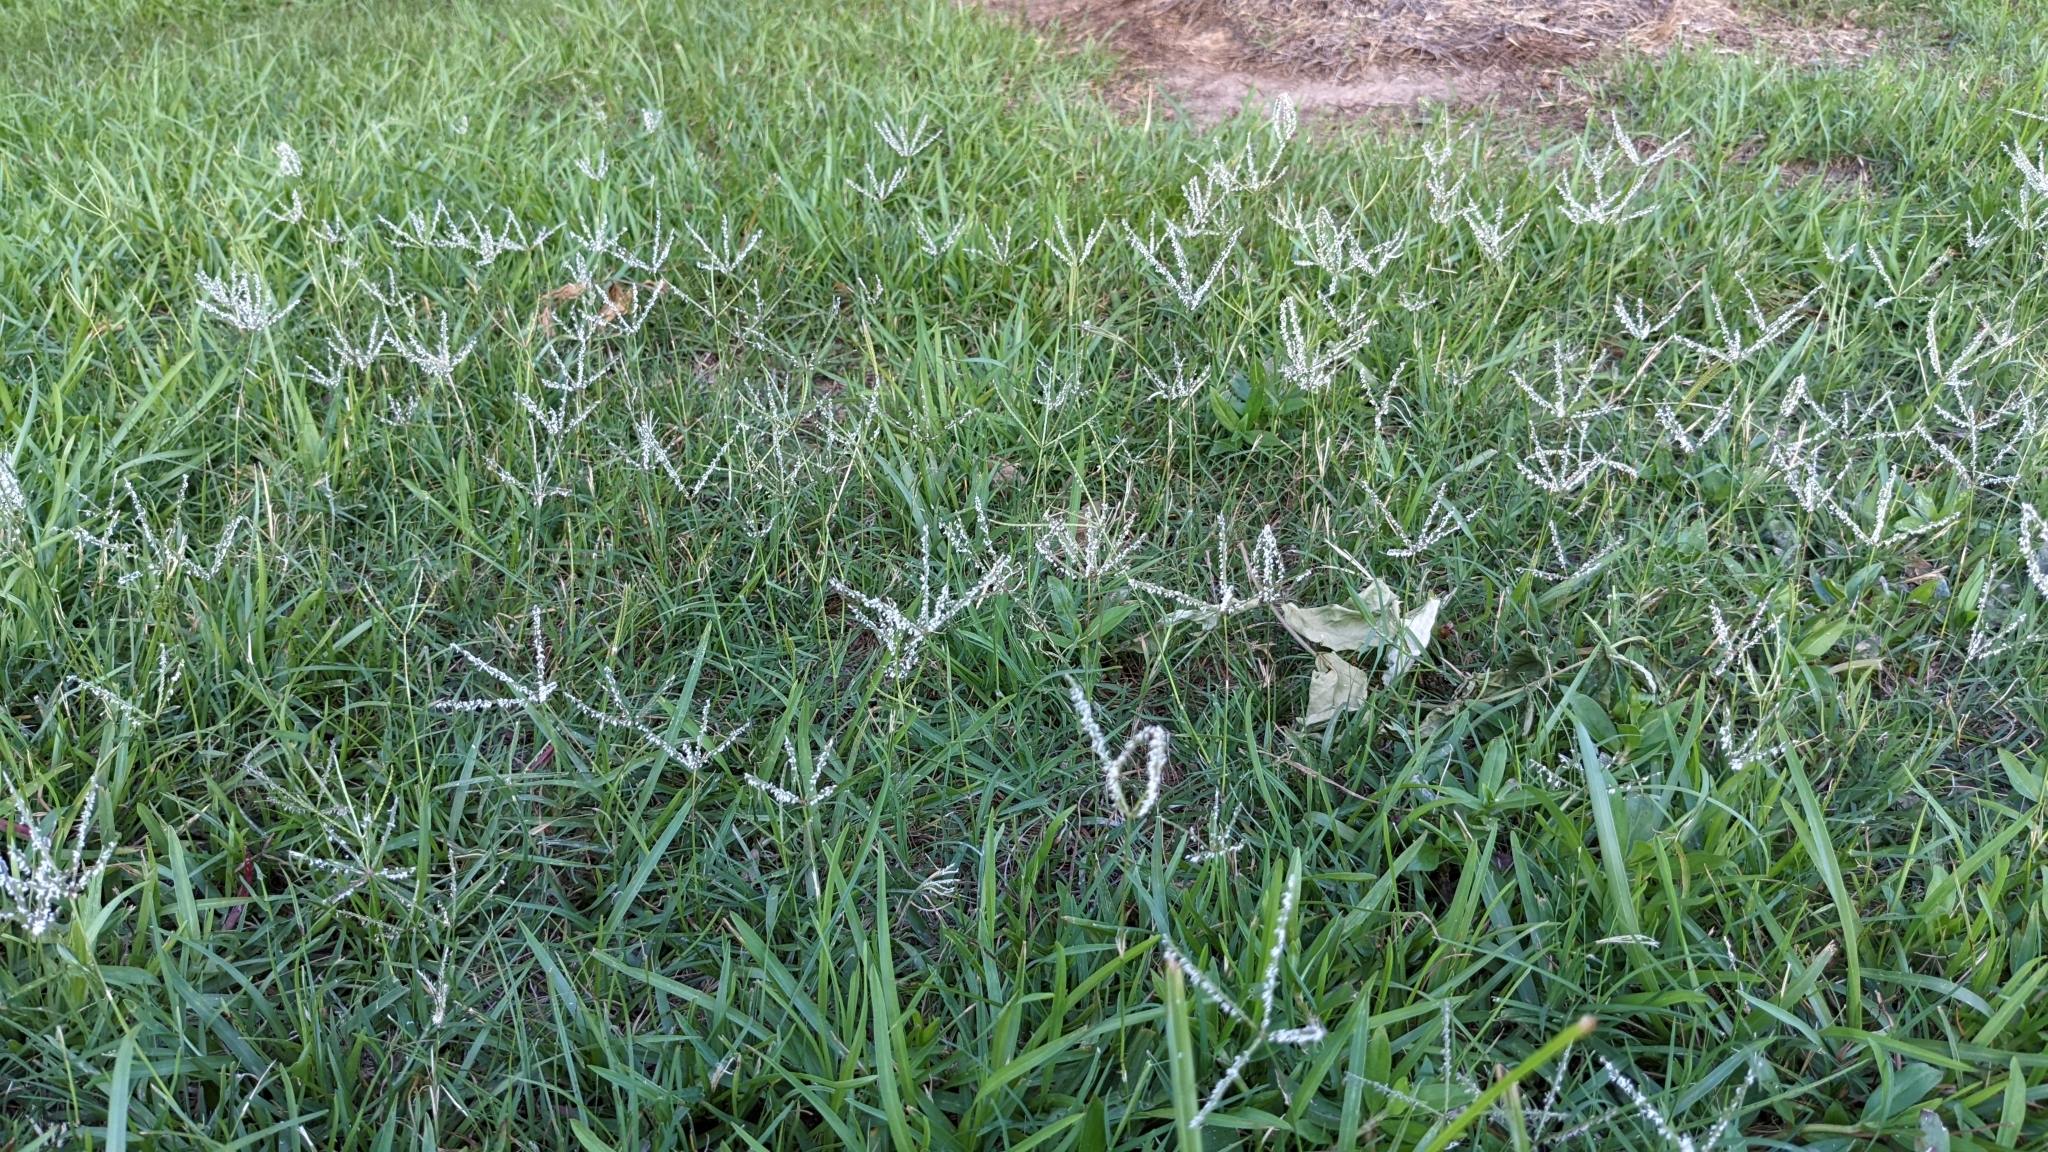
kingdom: Plantae
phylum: Tracheophyta
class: Liliopsida
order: Poales
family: Poaceae
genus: Cynodon
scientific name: Cynodon dactylon
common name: Bermuda grass
